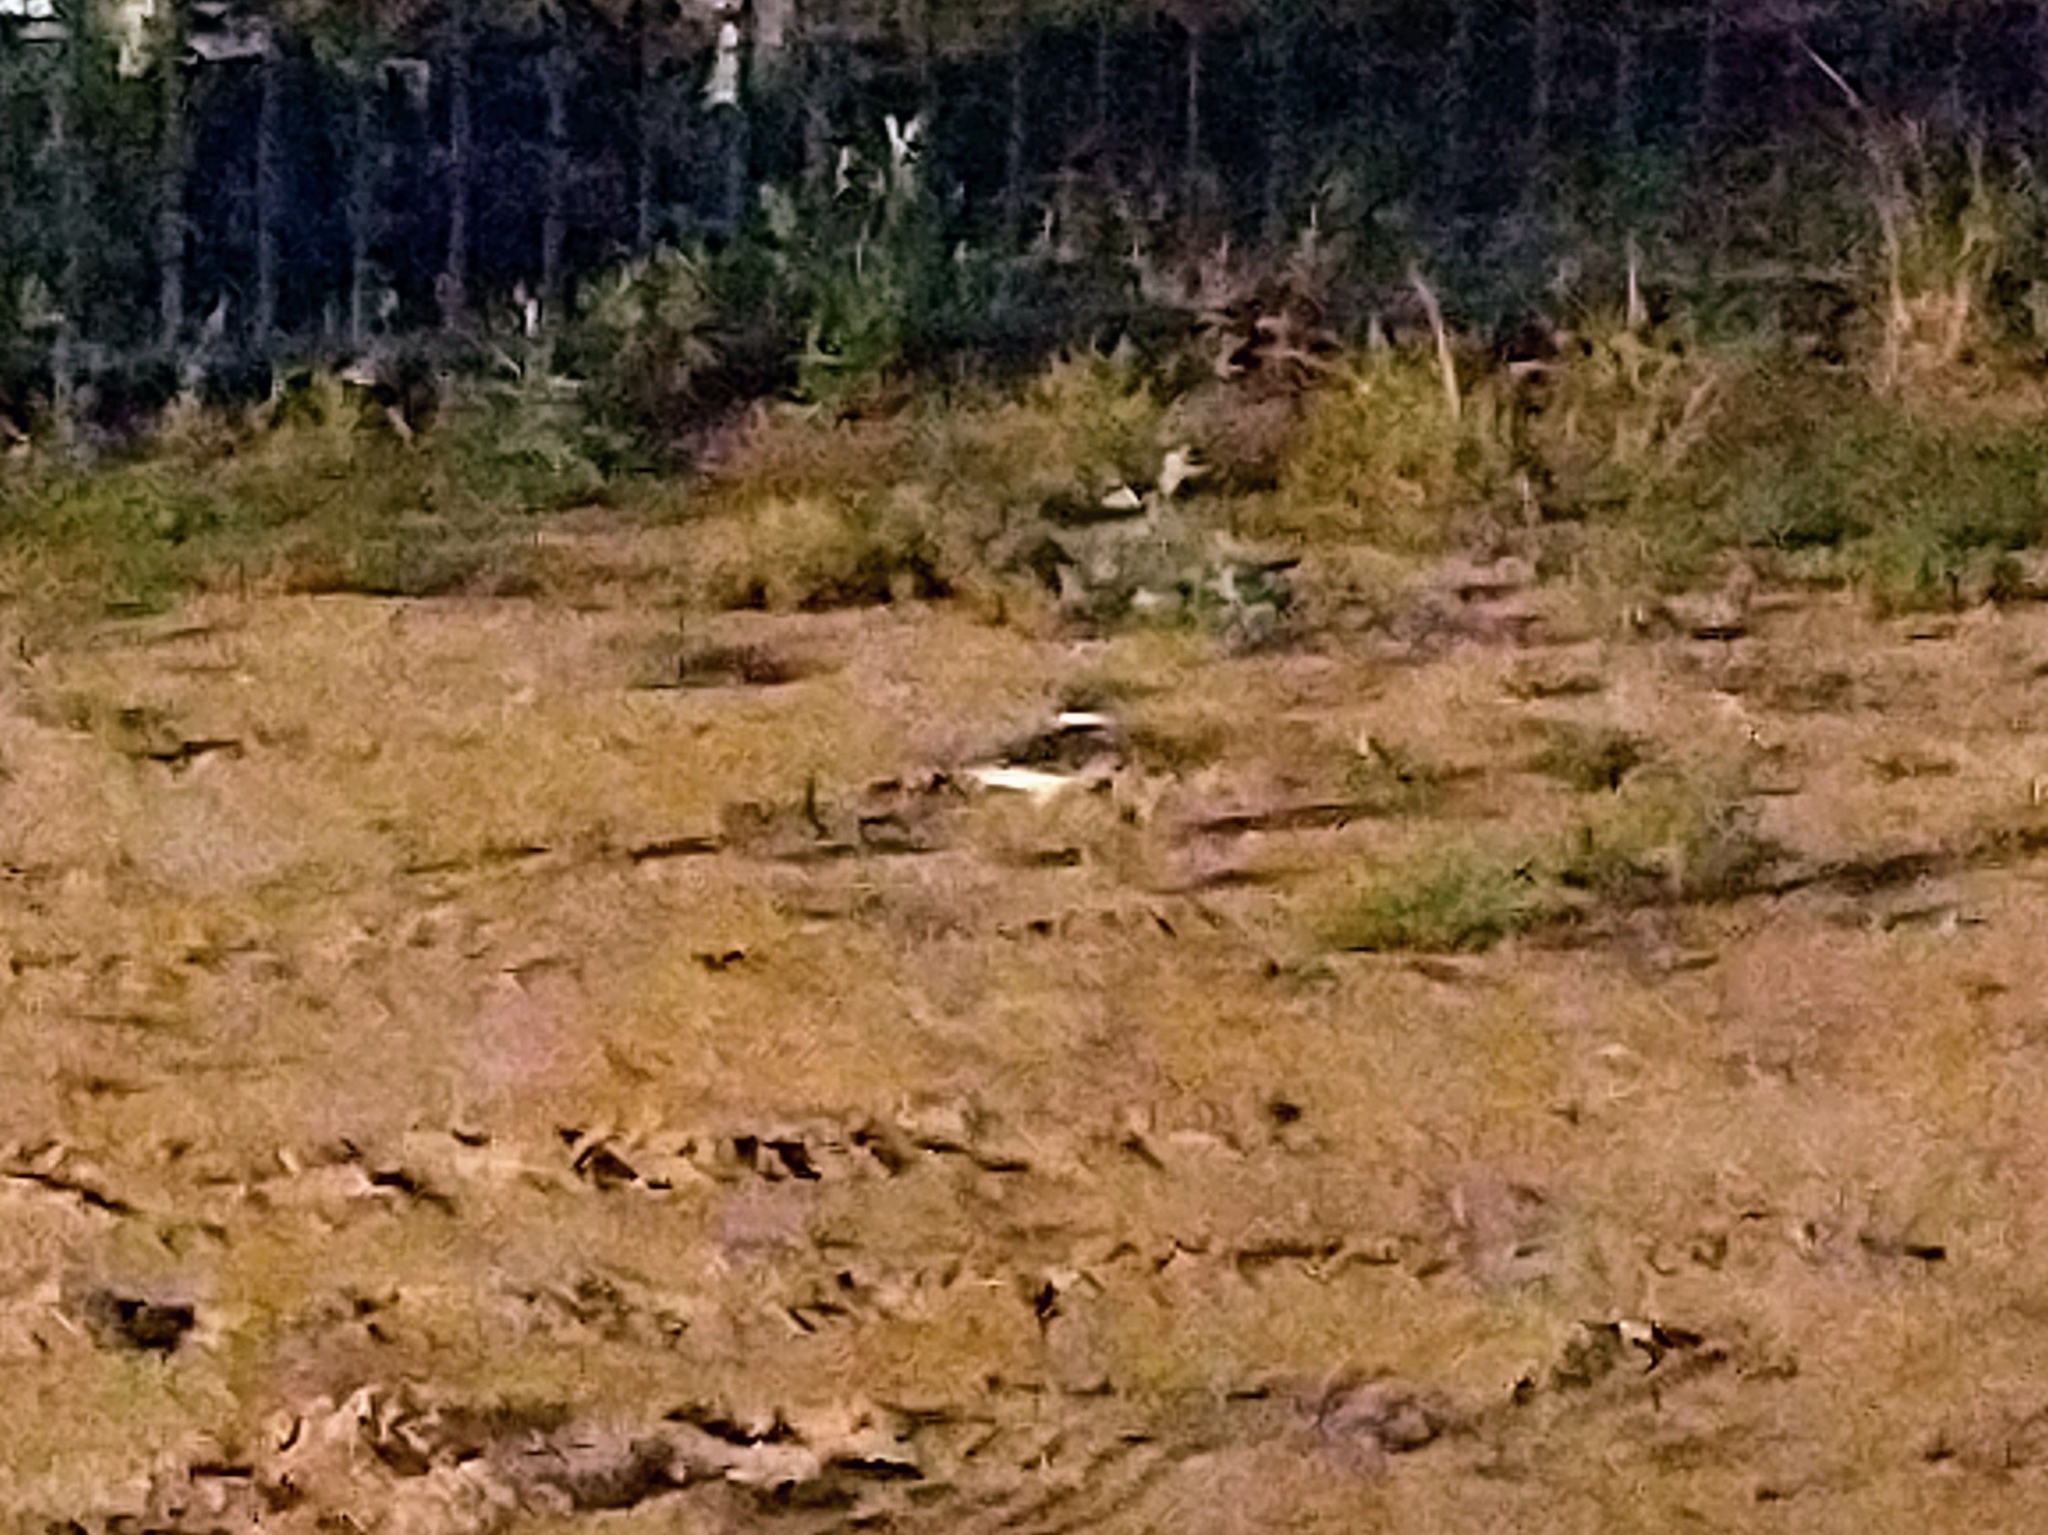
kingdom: Animalia
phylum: Chordata
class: Aves
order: Charadriiformes
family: Charadriidae
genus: Charadrius
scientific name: Charadrius vociferus
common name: Killdeer
